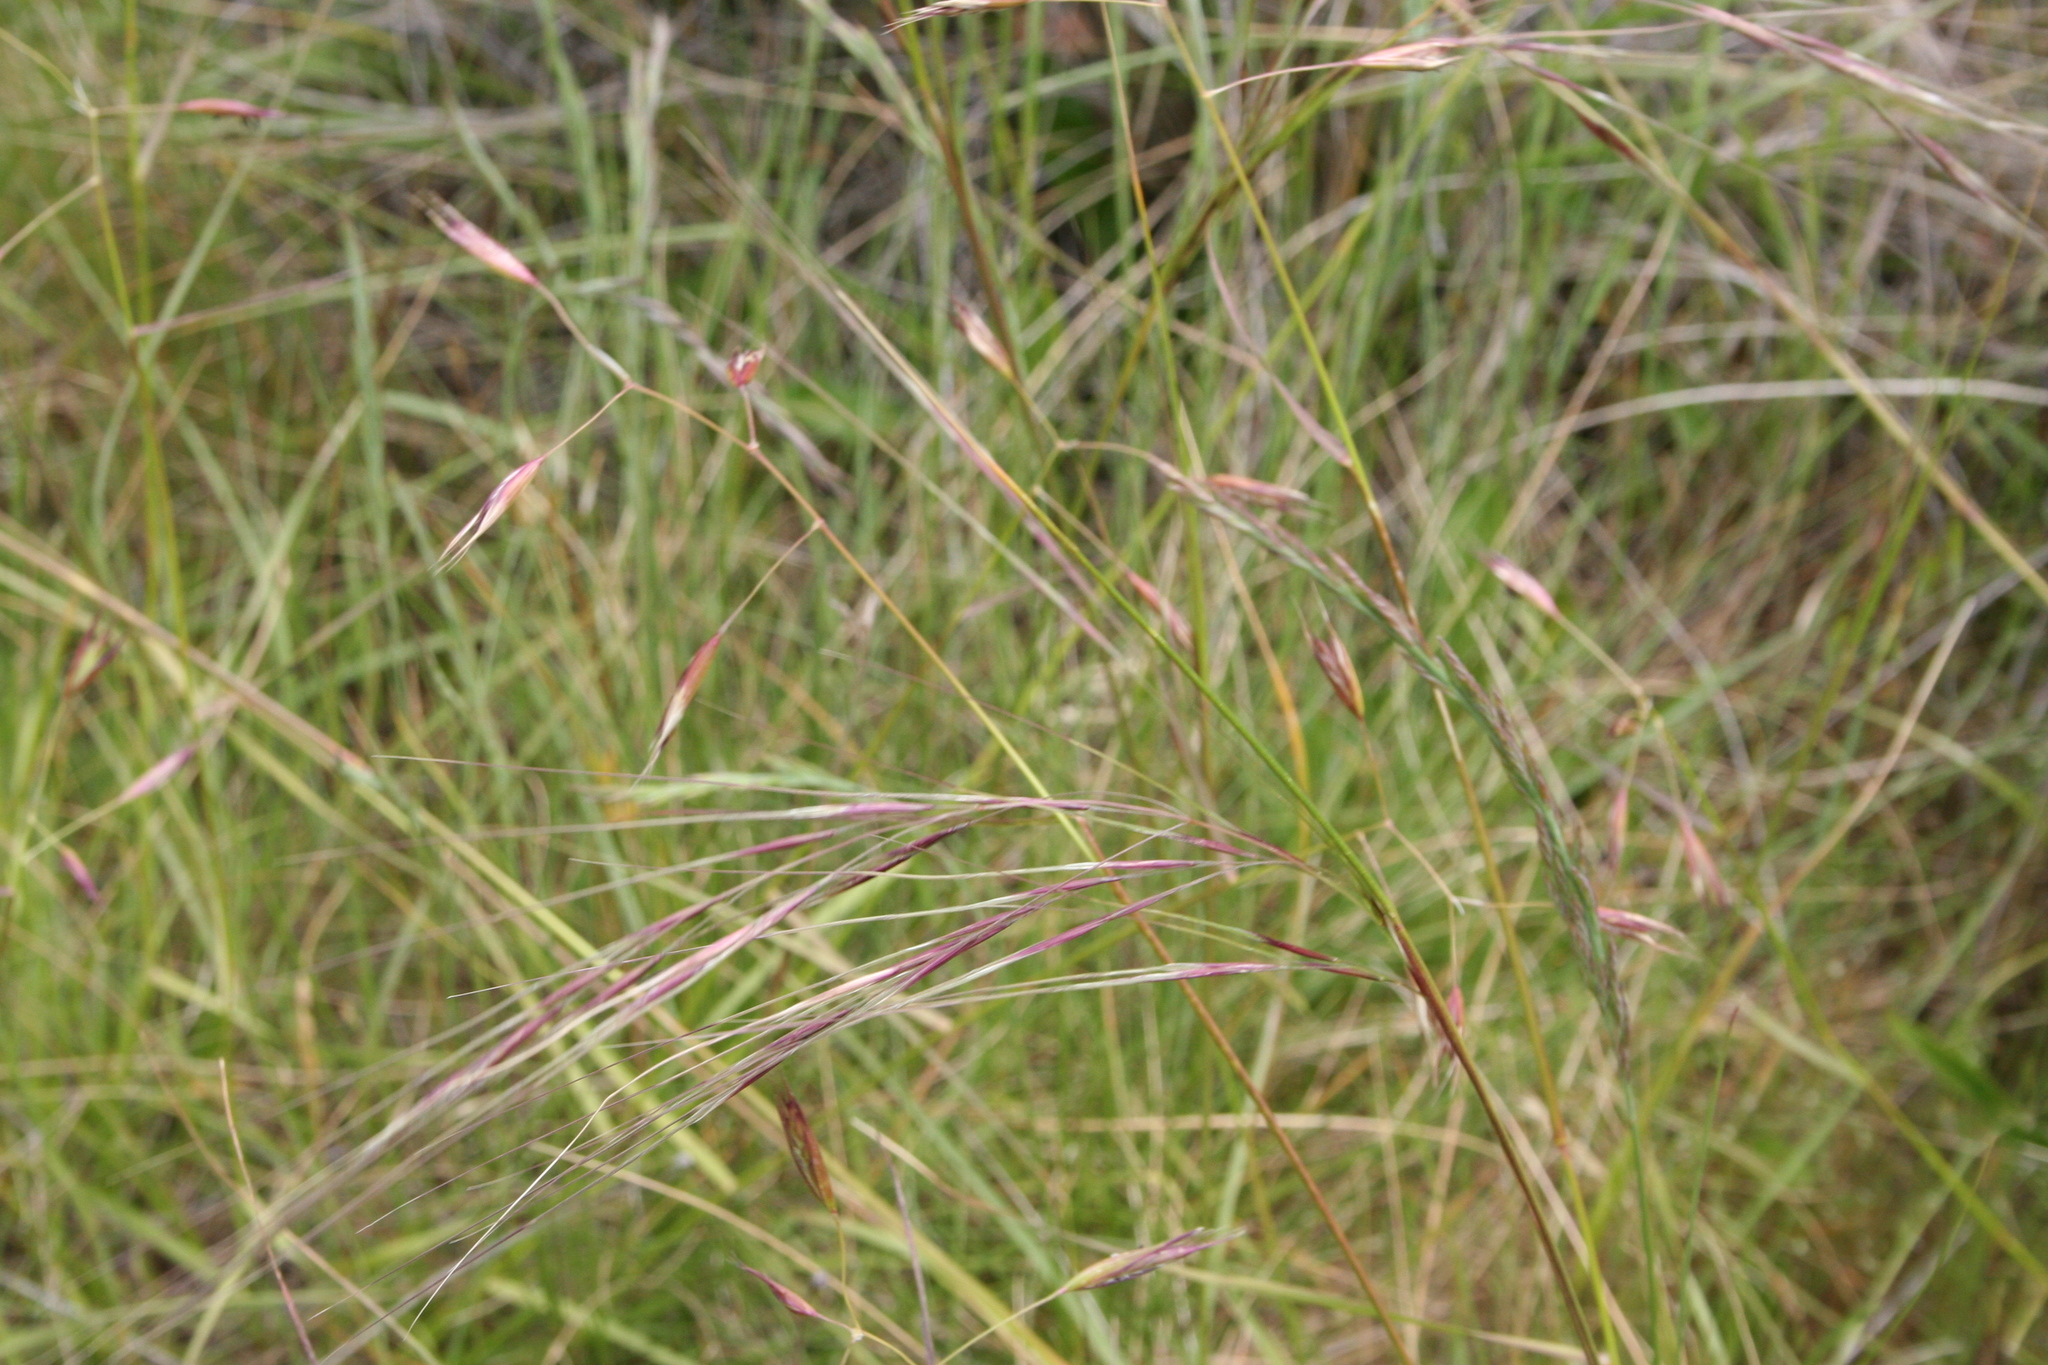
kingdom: Plantae
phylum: Tracheophyta
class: Liliopsida
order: Poales
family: Poaceae
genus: Nassella
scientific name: Nassella pulchra
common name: Purple needlegrass
